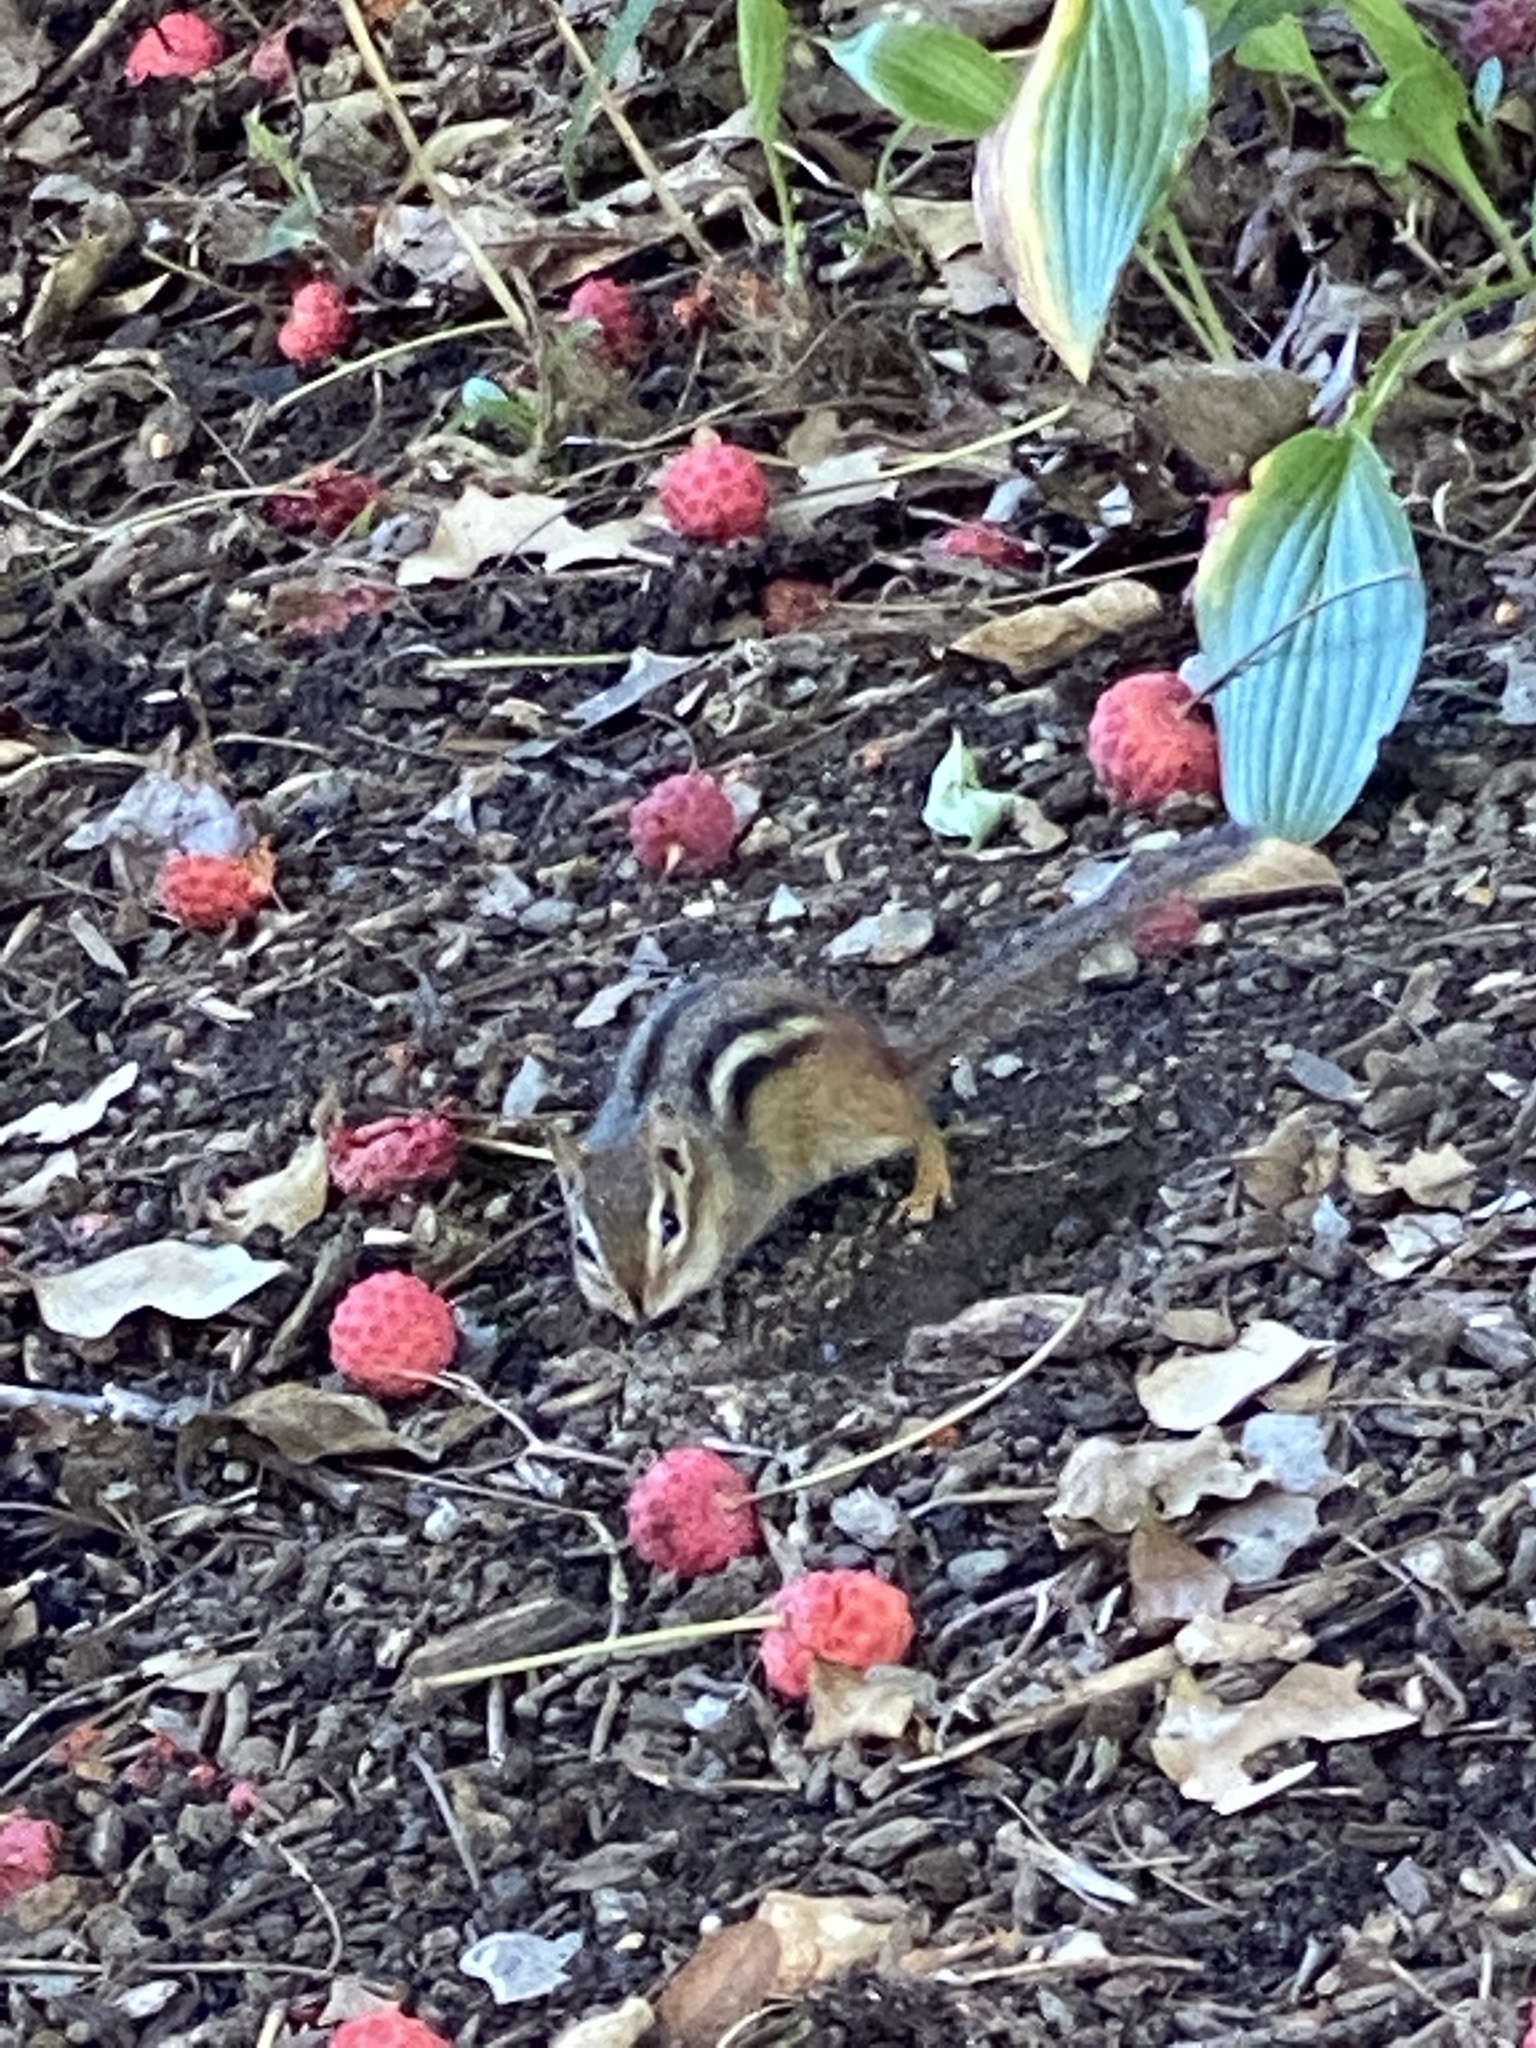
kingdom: Animalia
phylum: Chordata
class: Mammalia
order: Rodentia
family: Sciuridae
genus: Tamias
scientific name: Tamias striatus
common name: Eastern chipmunk
